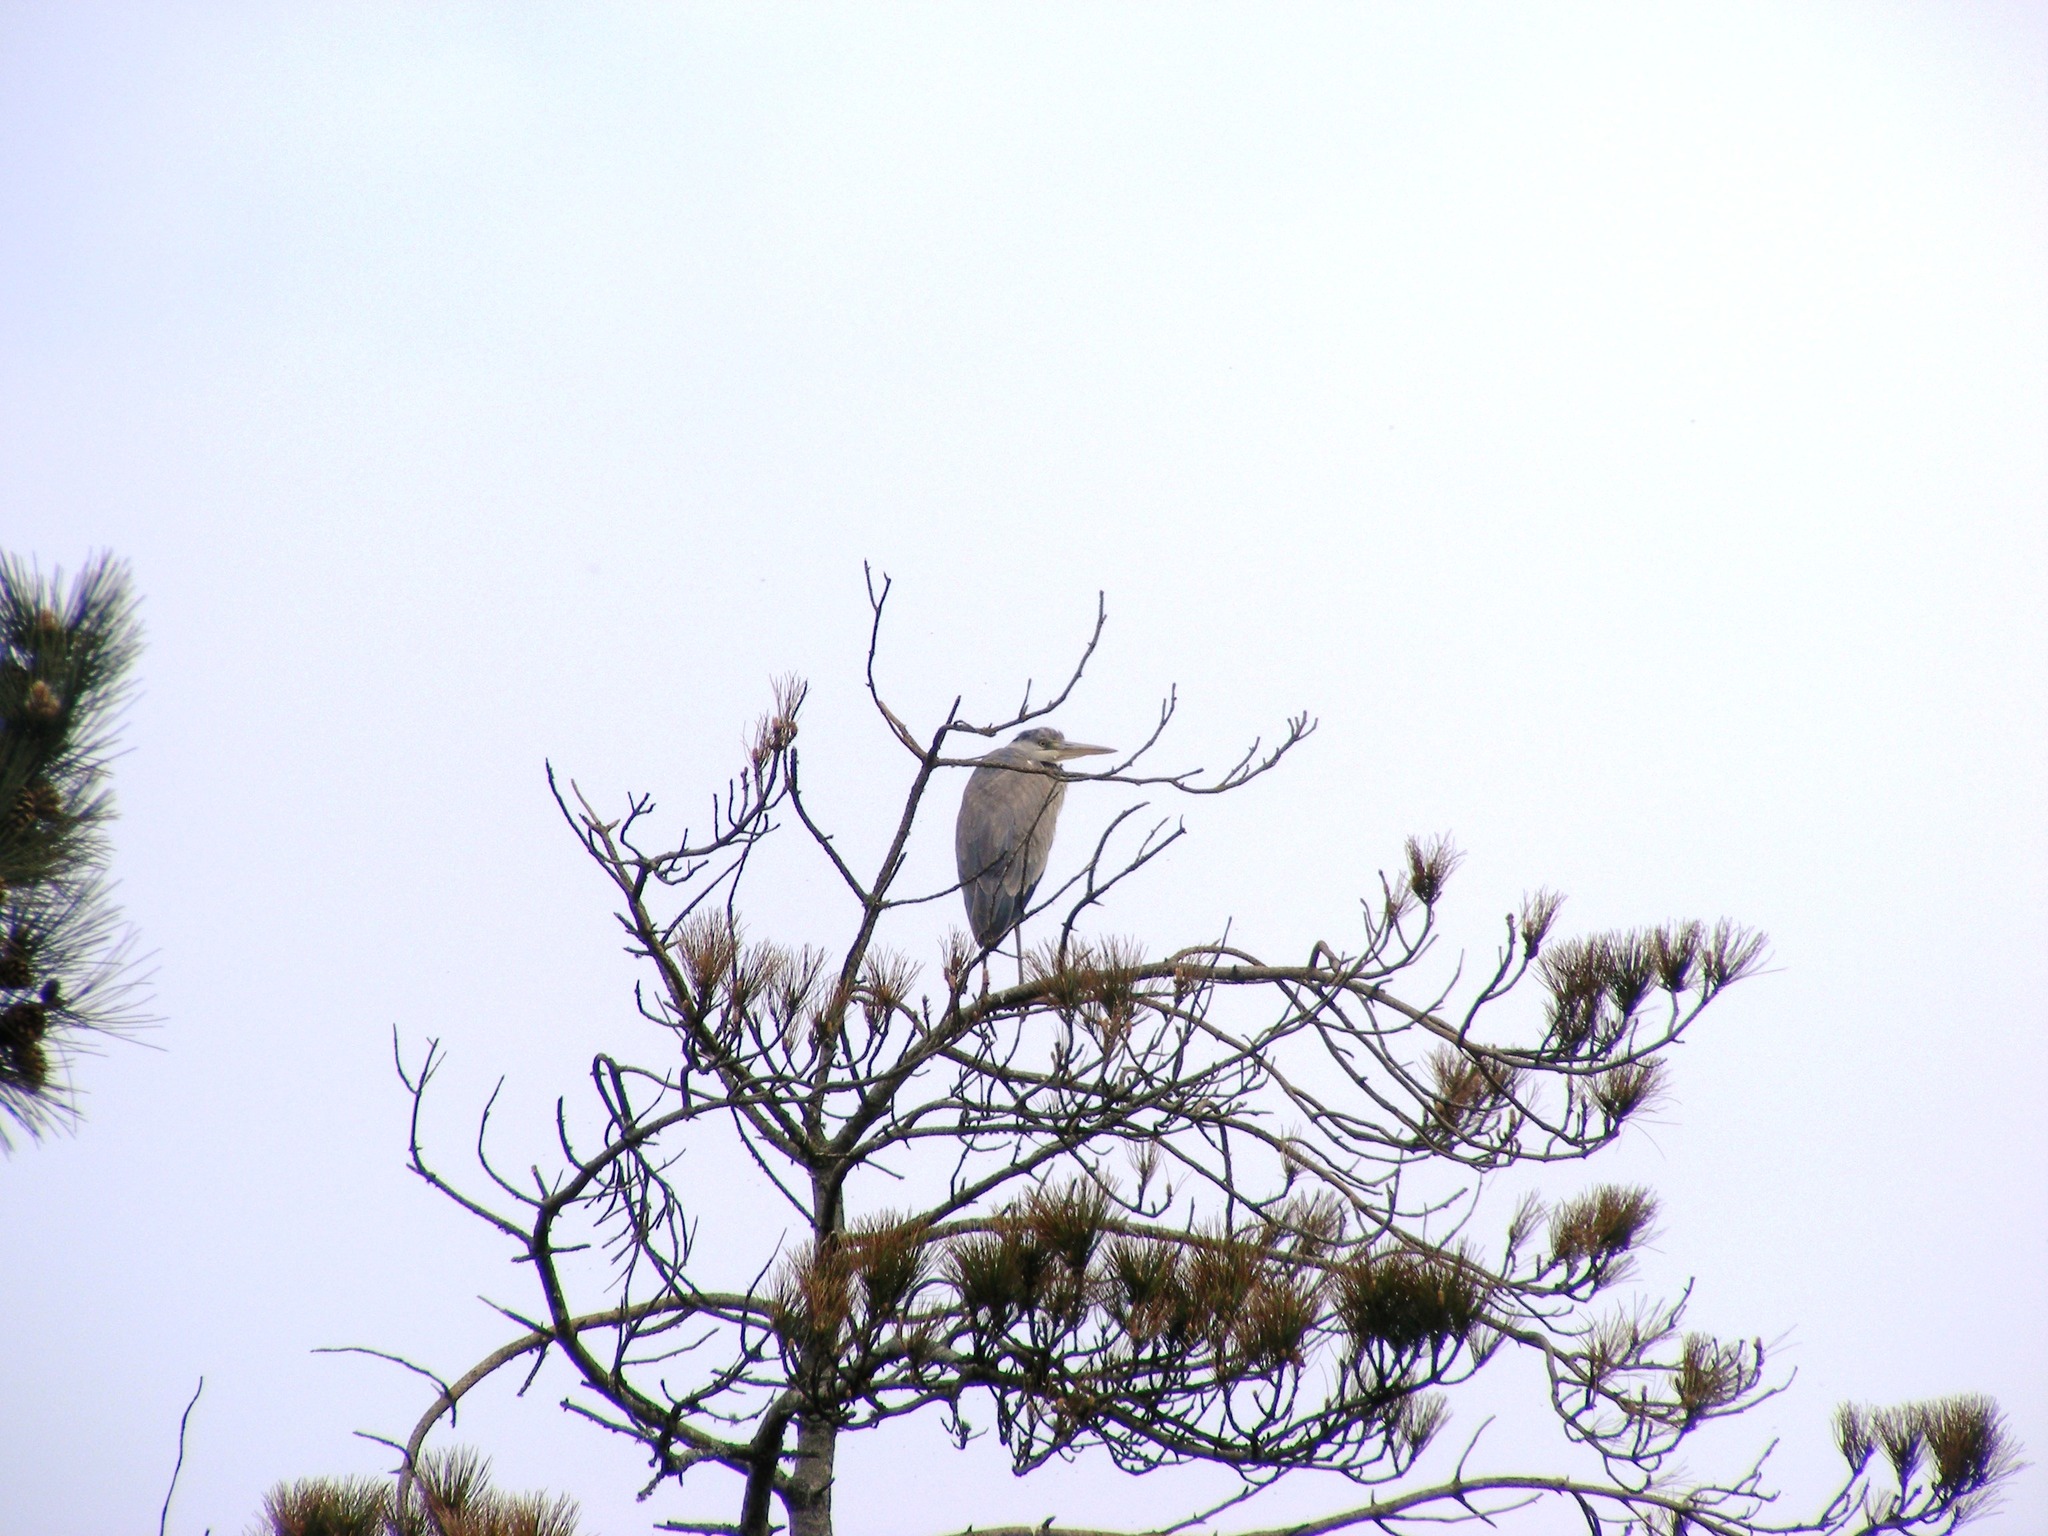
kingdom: Animalia
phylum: Chordata
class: Aves
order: Pelecaniformes
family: Ardeidae
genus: Ardea
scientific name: Ardea cinerea
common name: Grey heron
